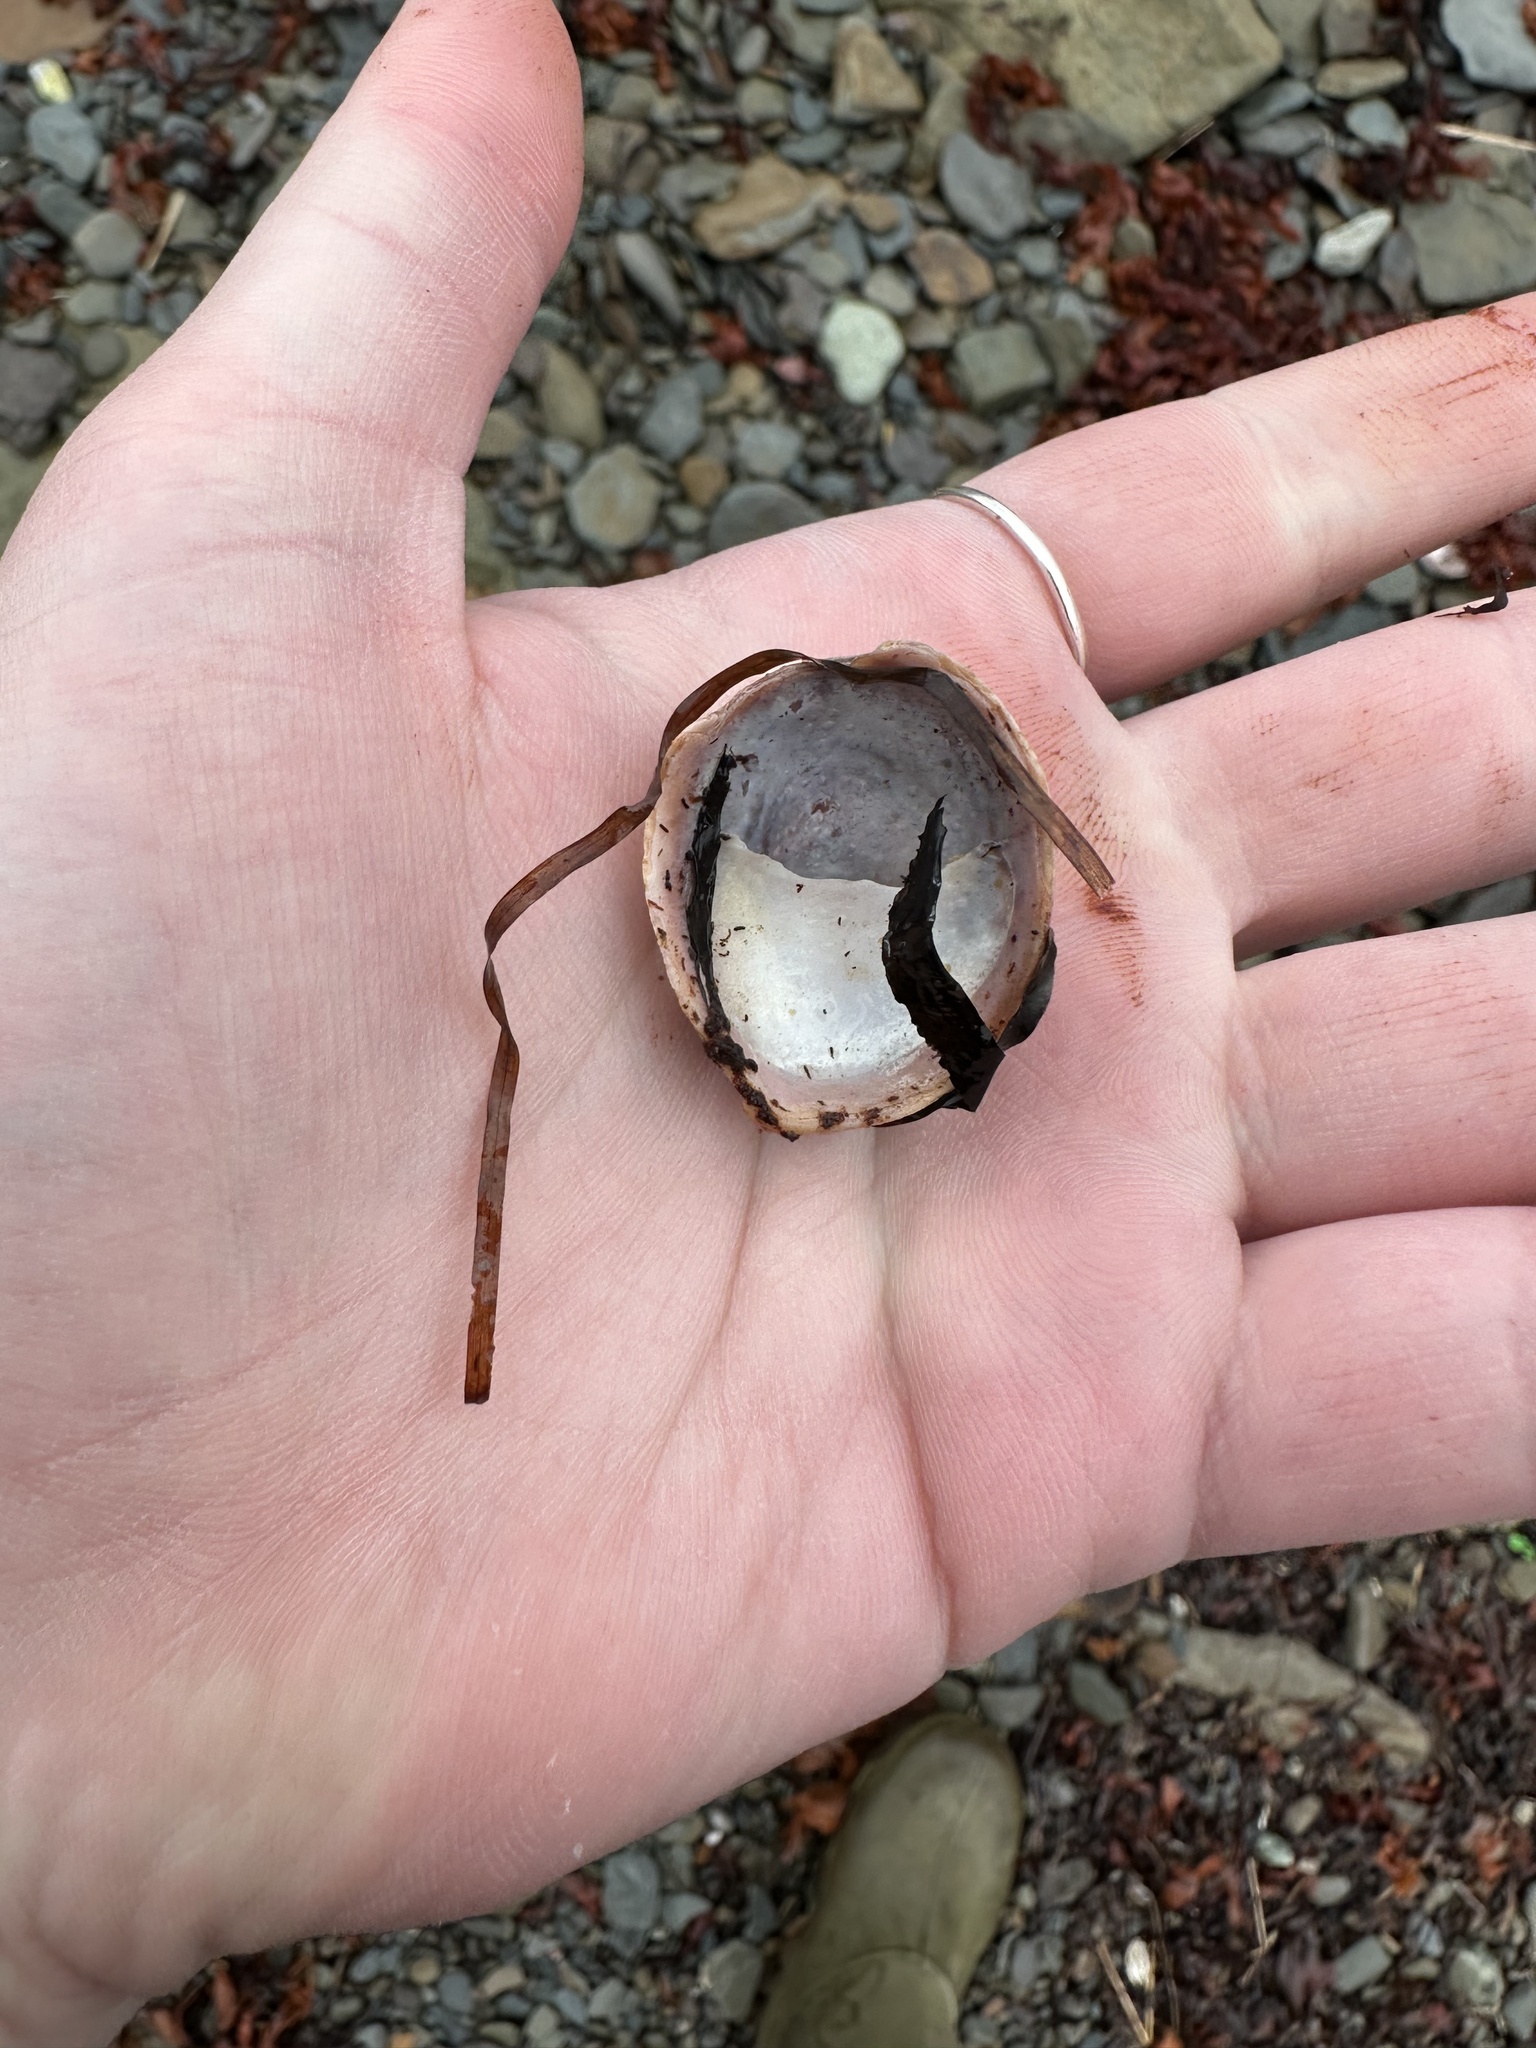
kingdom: Animalia
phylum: Mollusca
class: Gastropoda
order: Littorinimorpha
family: Calyptraeidae
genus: Crepidula
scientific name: Crepidula fornicata
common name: Slipper limpet
